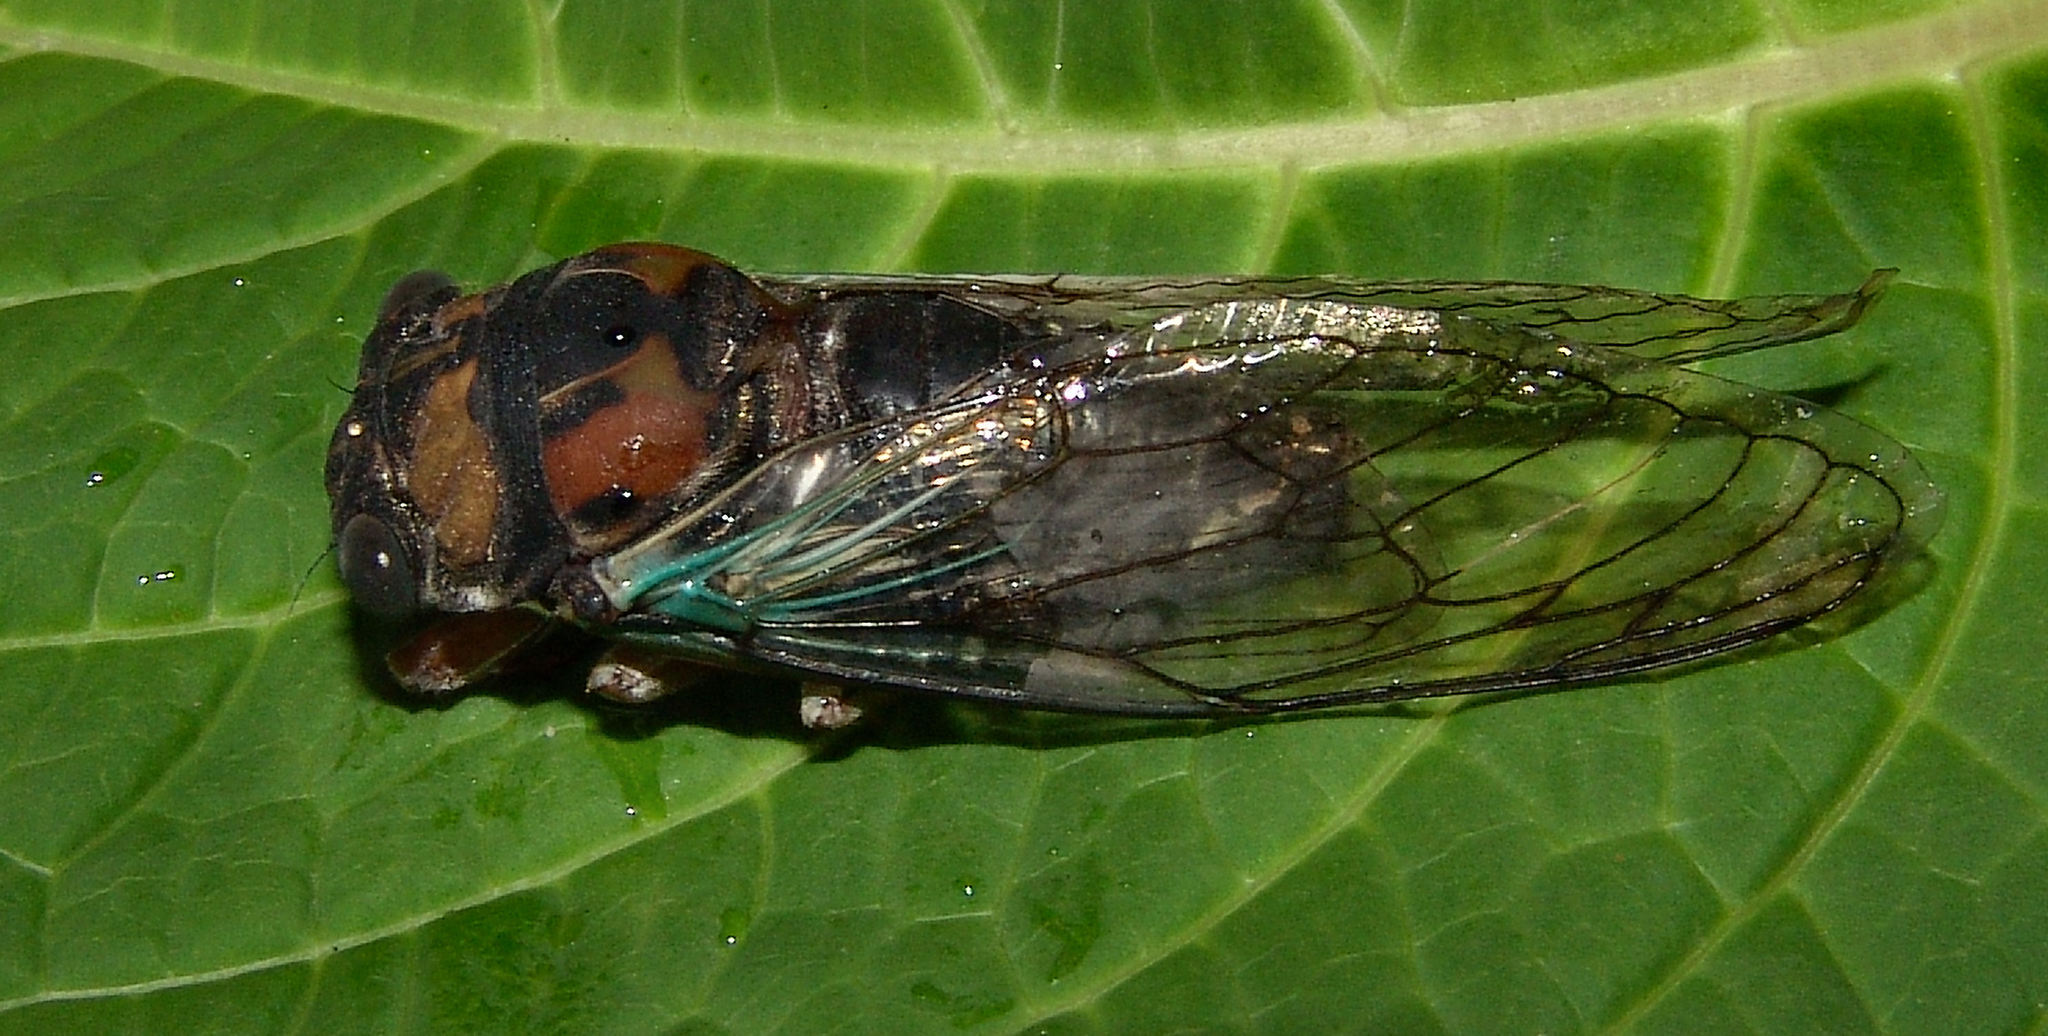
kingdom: Animalia
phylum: Arthropoda
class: Insecta
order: Hemiptera
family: Cicadidae
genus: Neotibicen
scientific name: Neotibicen lyricen
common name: Lyric cicada
